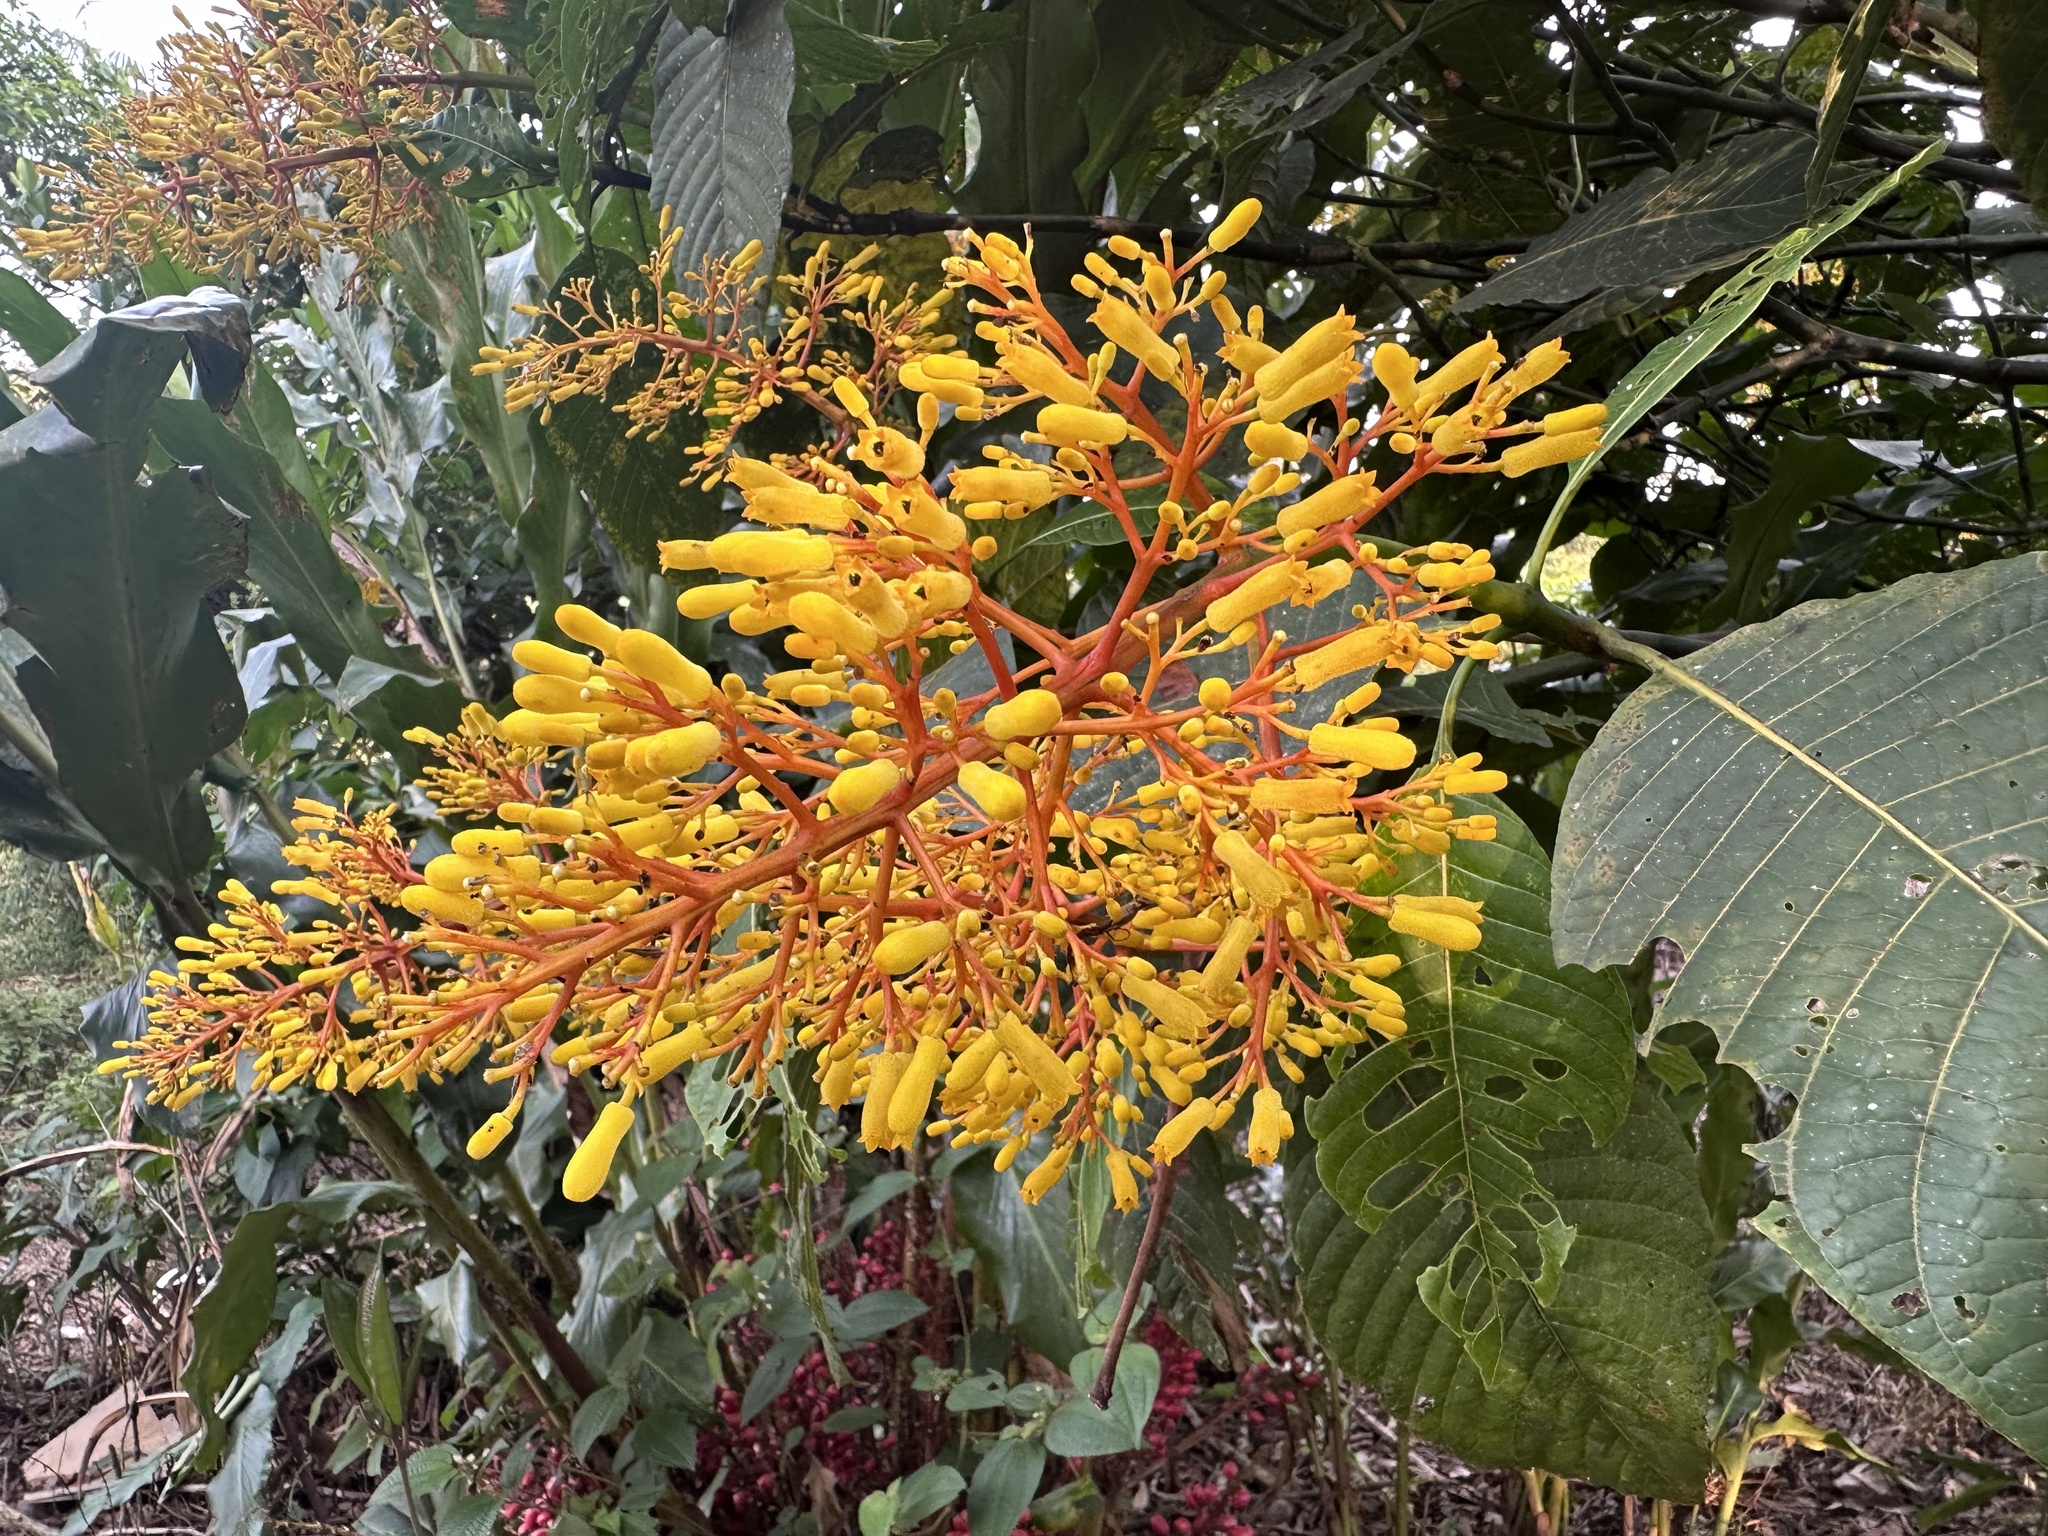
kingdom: Plantae
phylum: Tracheophyta
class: Magnoliopsida
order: Gentianales
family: Rubiaceae
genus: Palicourea
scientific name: Palicourea guianensis
